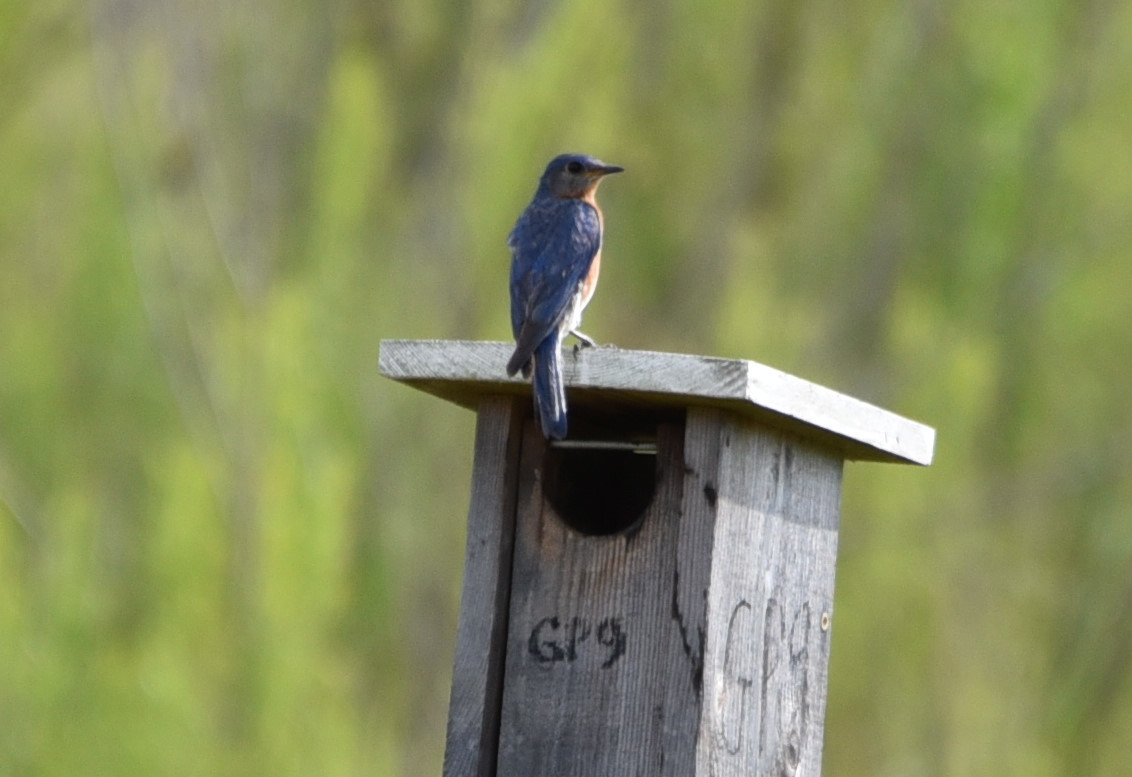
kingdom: Animalia
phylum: Chordata
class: Aves
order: Passeriformes
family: Turdidae
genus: Sialia
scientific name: Sialia sialis
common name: Eastern bluebird
